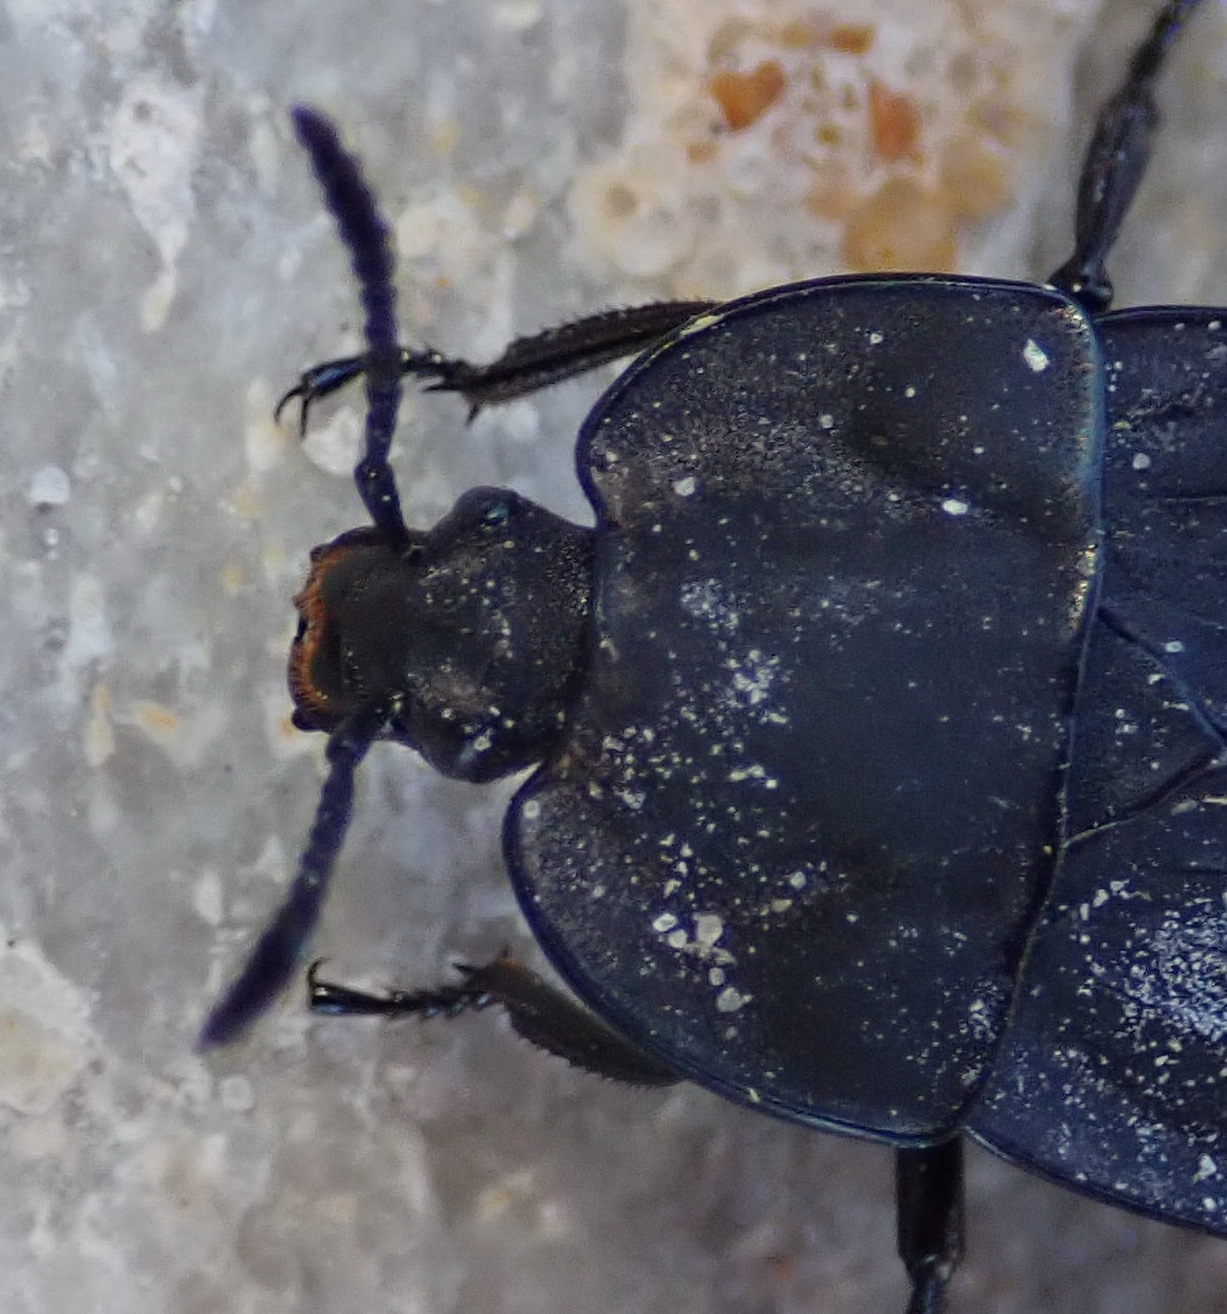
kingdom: Animalia
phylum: Arthropoda
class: Insecta
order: Coleoptera
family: Staphylinidae
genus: Silpha
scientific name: Silpha capicola
